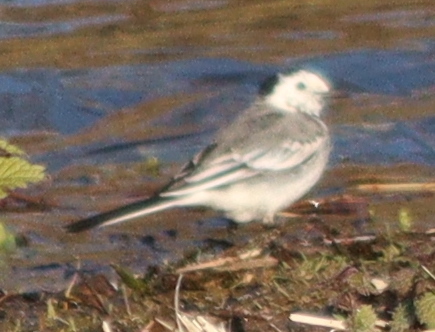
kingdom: Animalia
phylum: Chordata
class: Aves
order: Passeriformes
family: Motacillidae
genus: Motacilla
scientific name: Motacilla alba
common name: White wagtail
